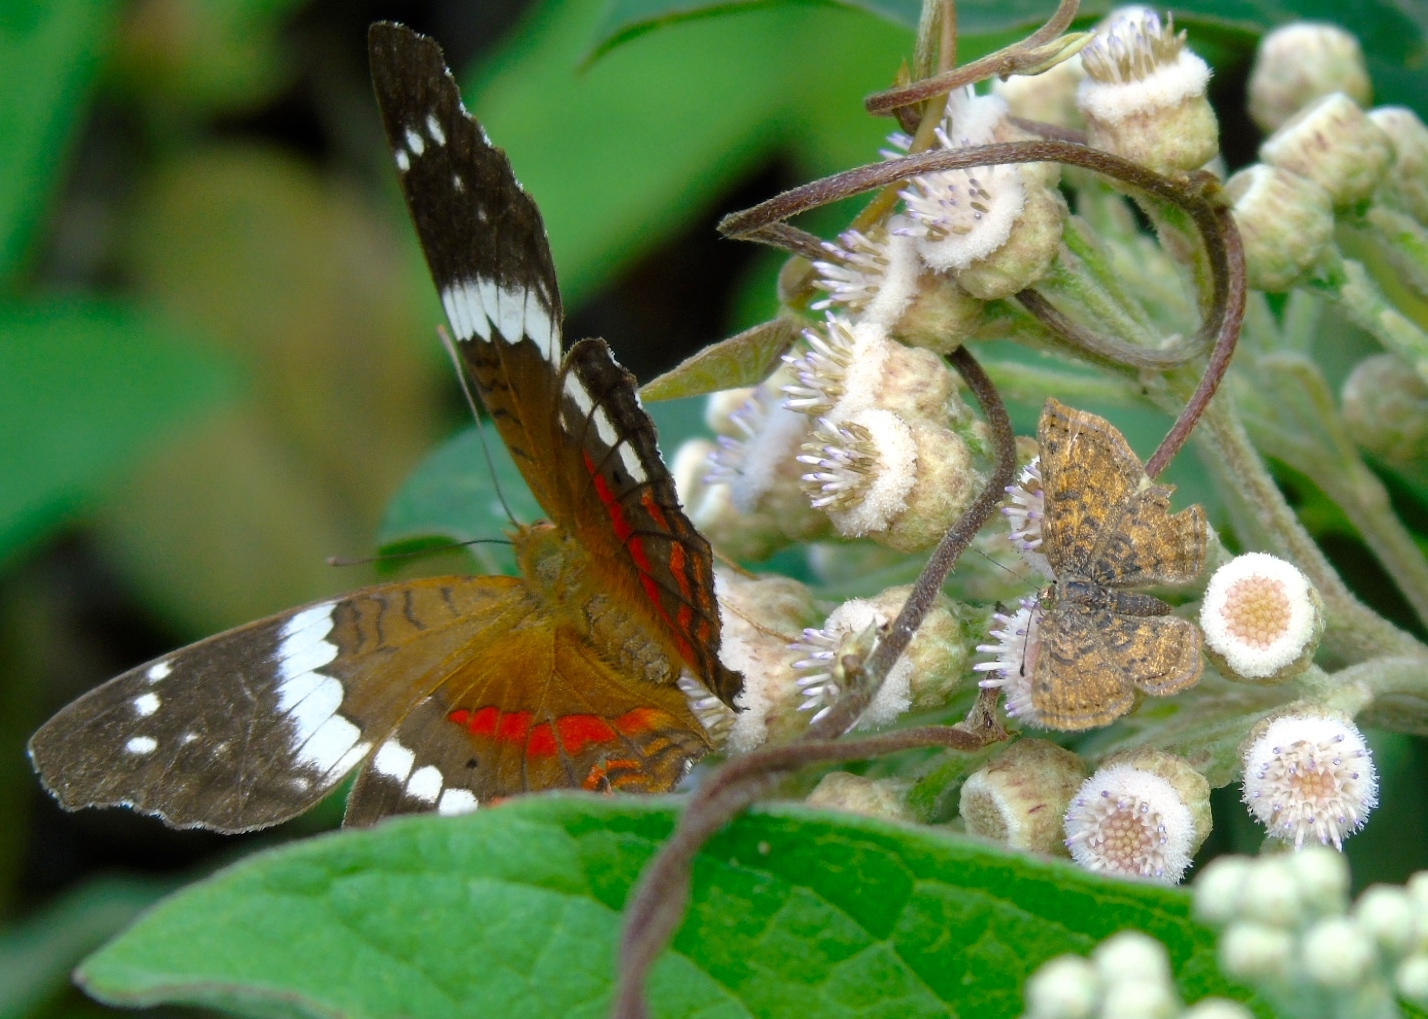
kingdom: Animalia
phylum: Arthropoda
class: Insecta
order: Lepidoptera
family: Nymphalidae
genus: Anartia
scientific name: Anartia fatima
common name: Banded peacock
